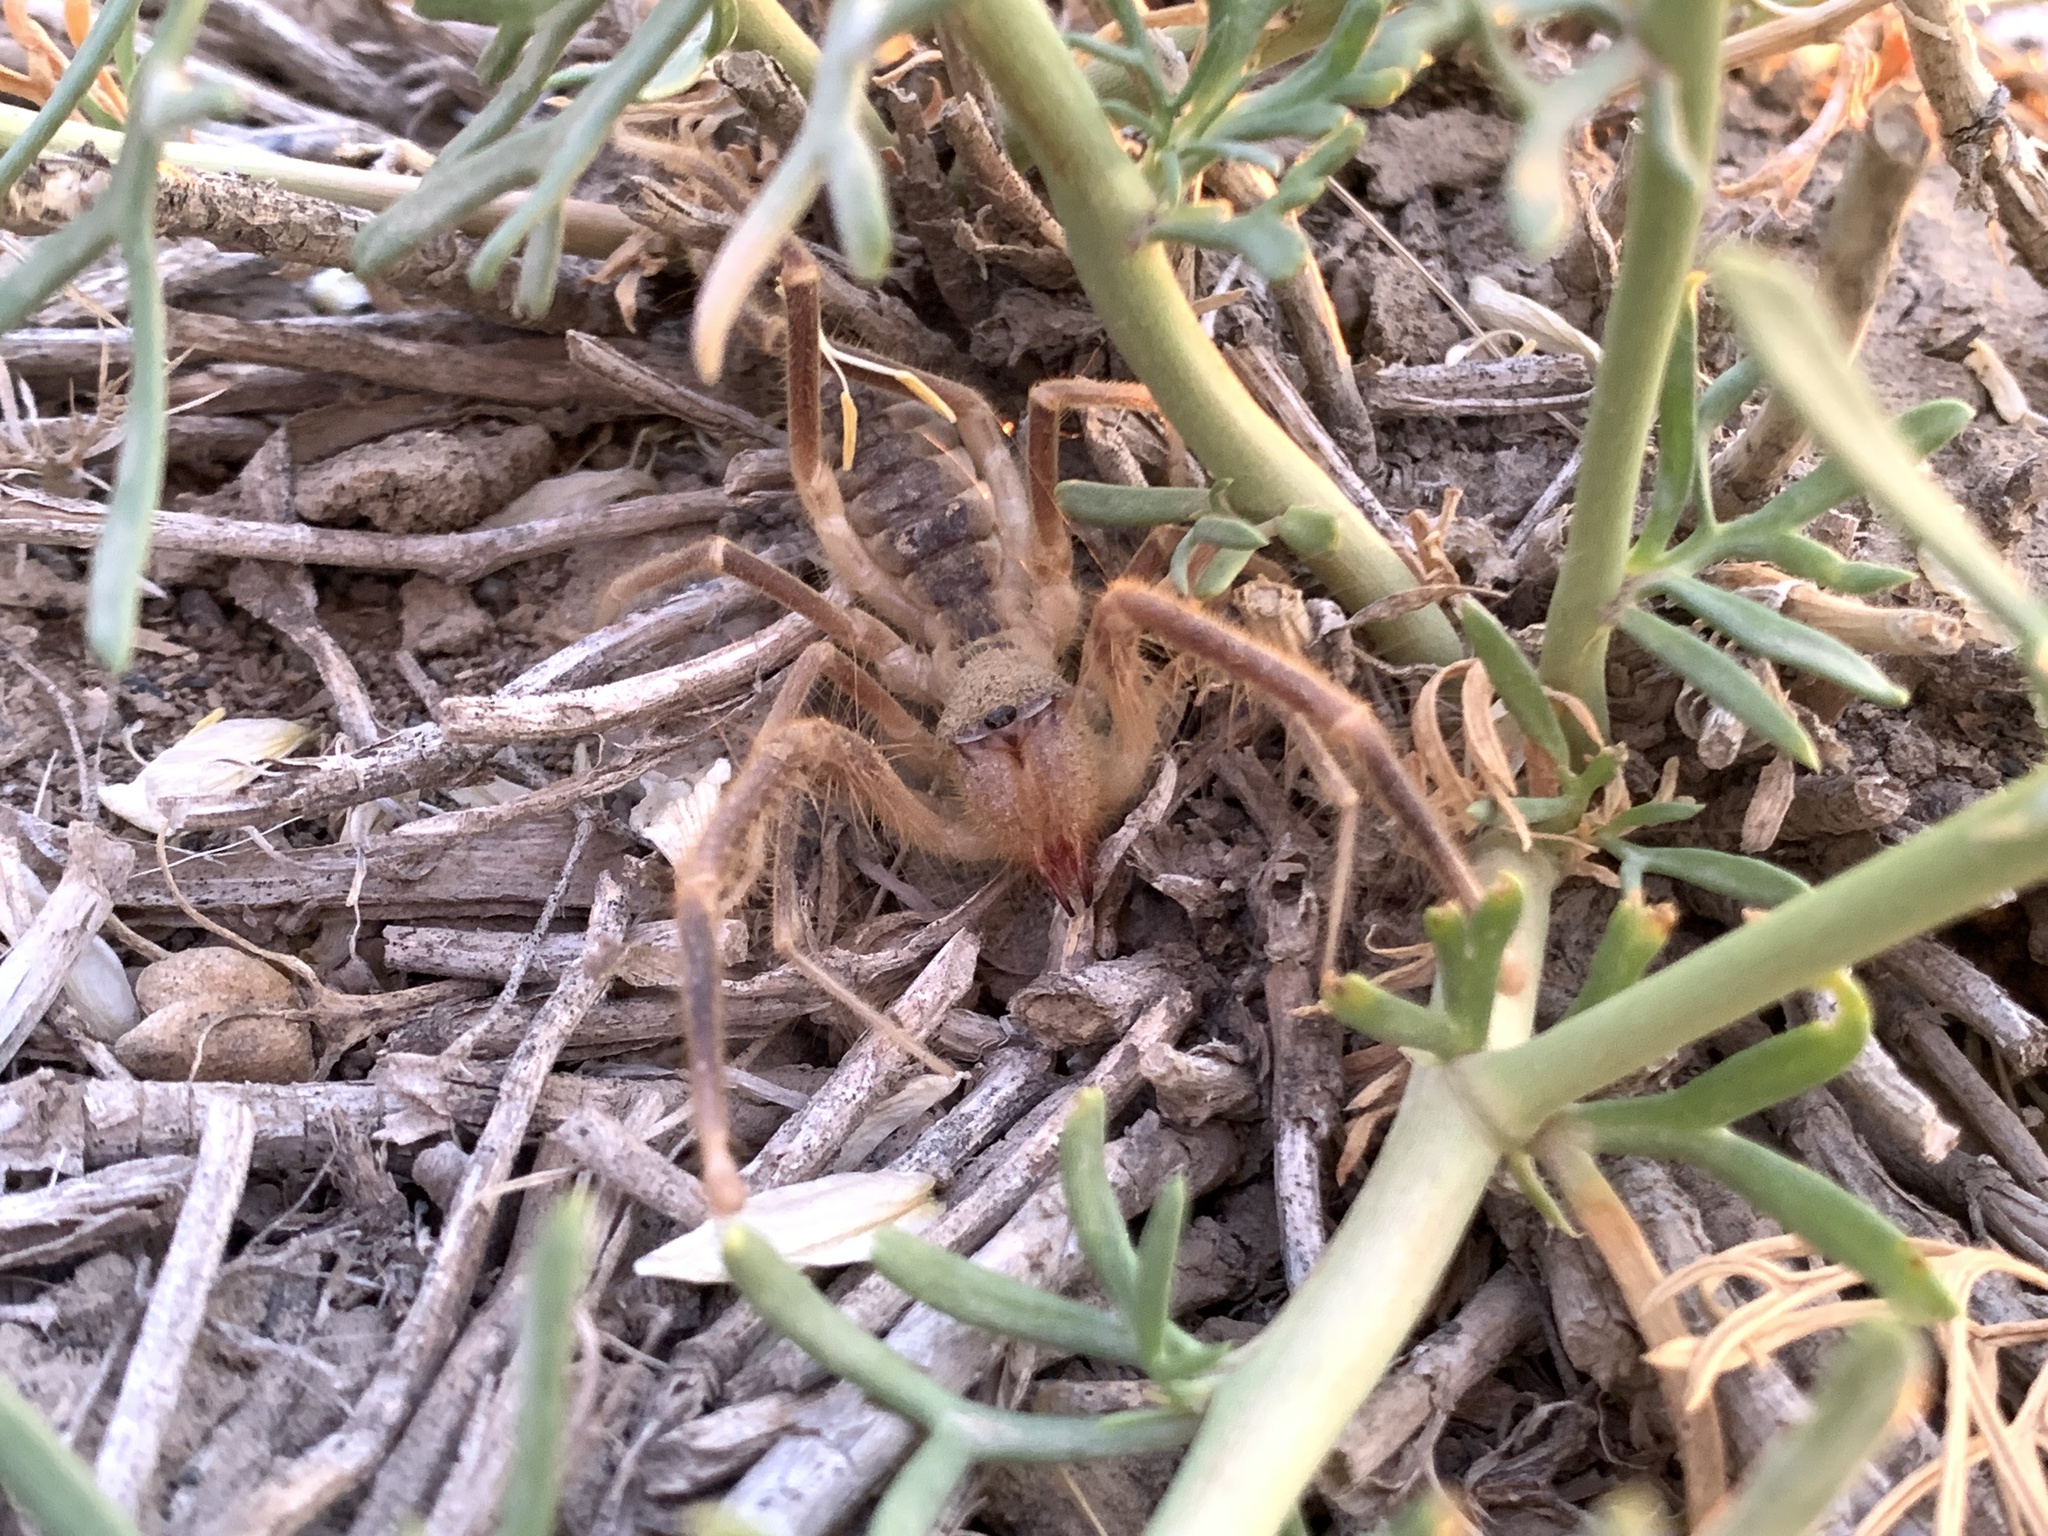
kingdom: Animalia
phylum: Arthropoda
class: Arachnida
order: Solifugae
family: Galeodidae
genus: Galeodes
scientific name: Galeodes caspius
